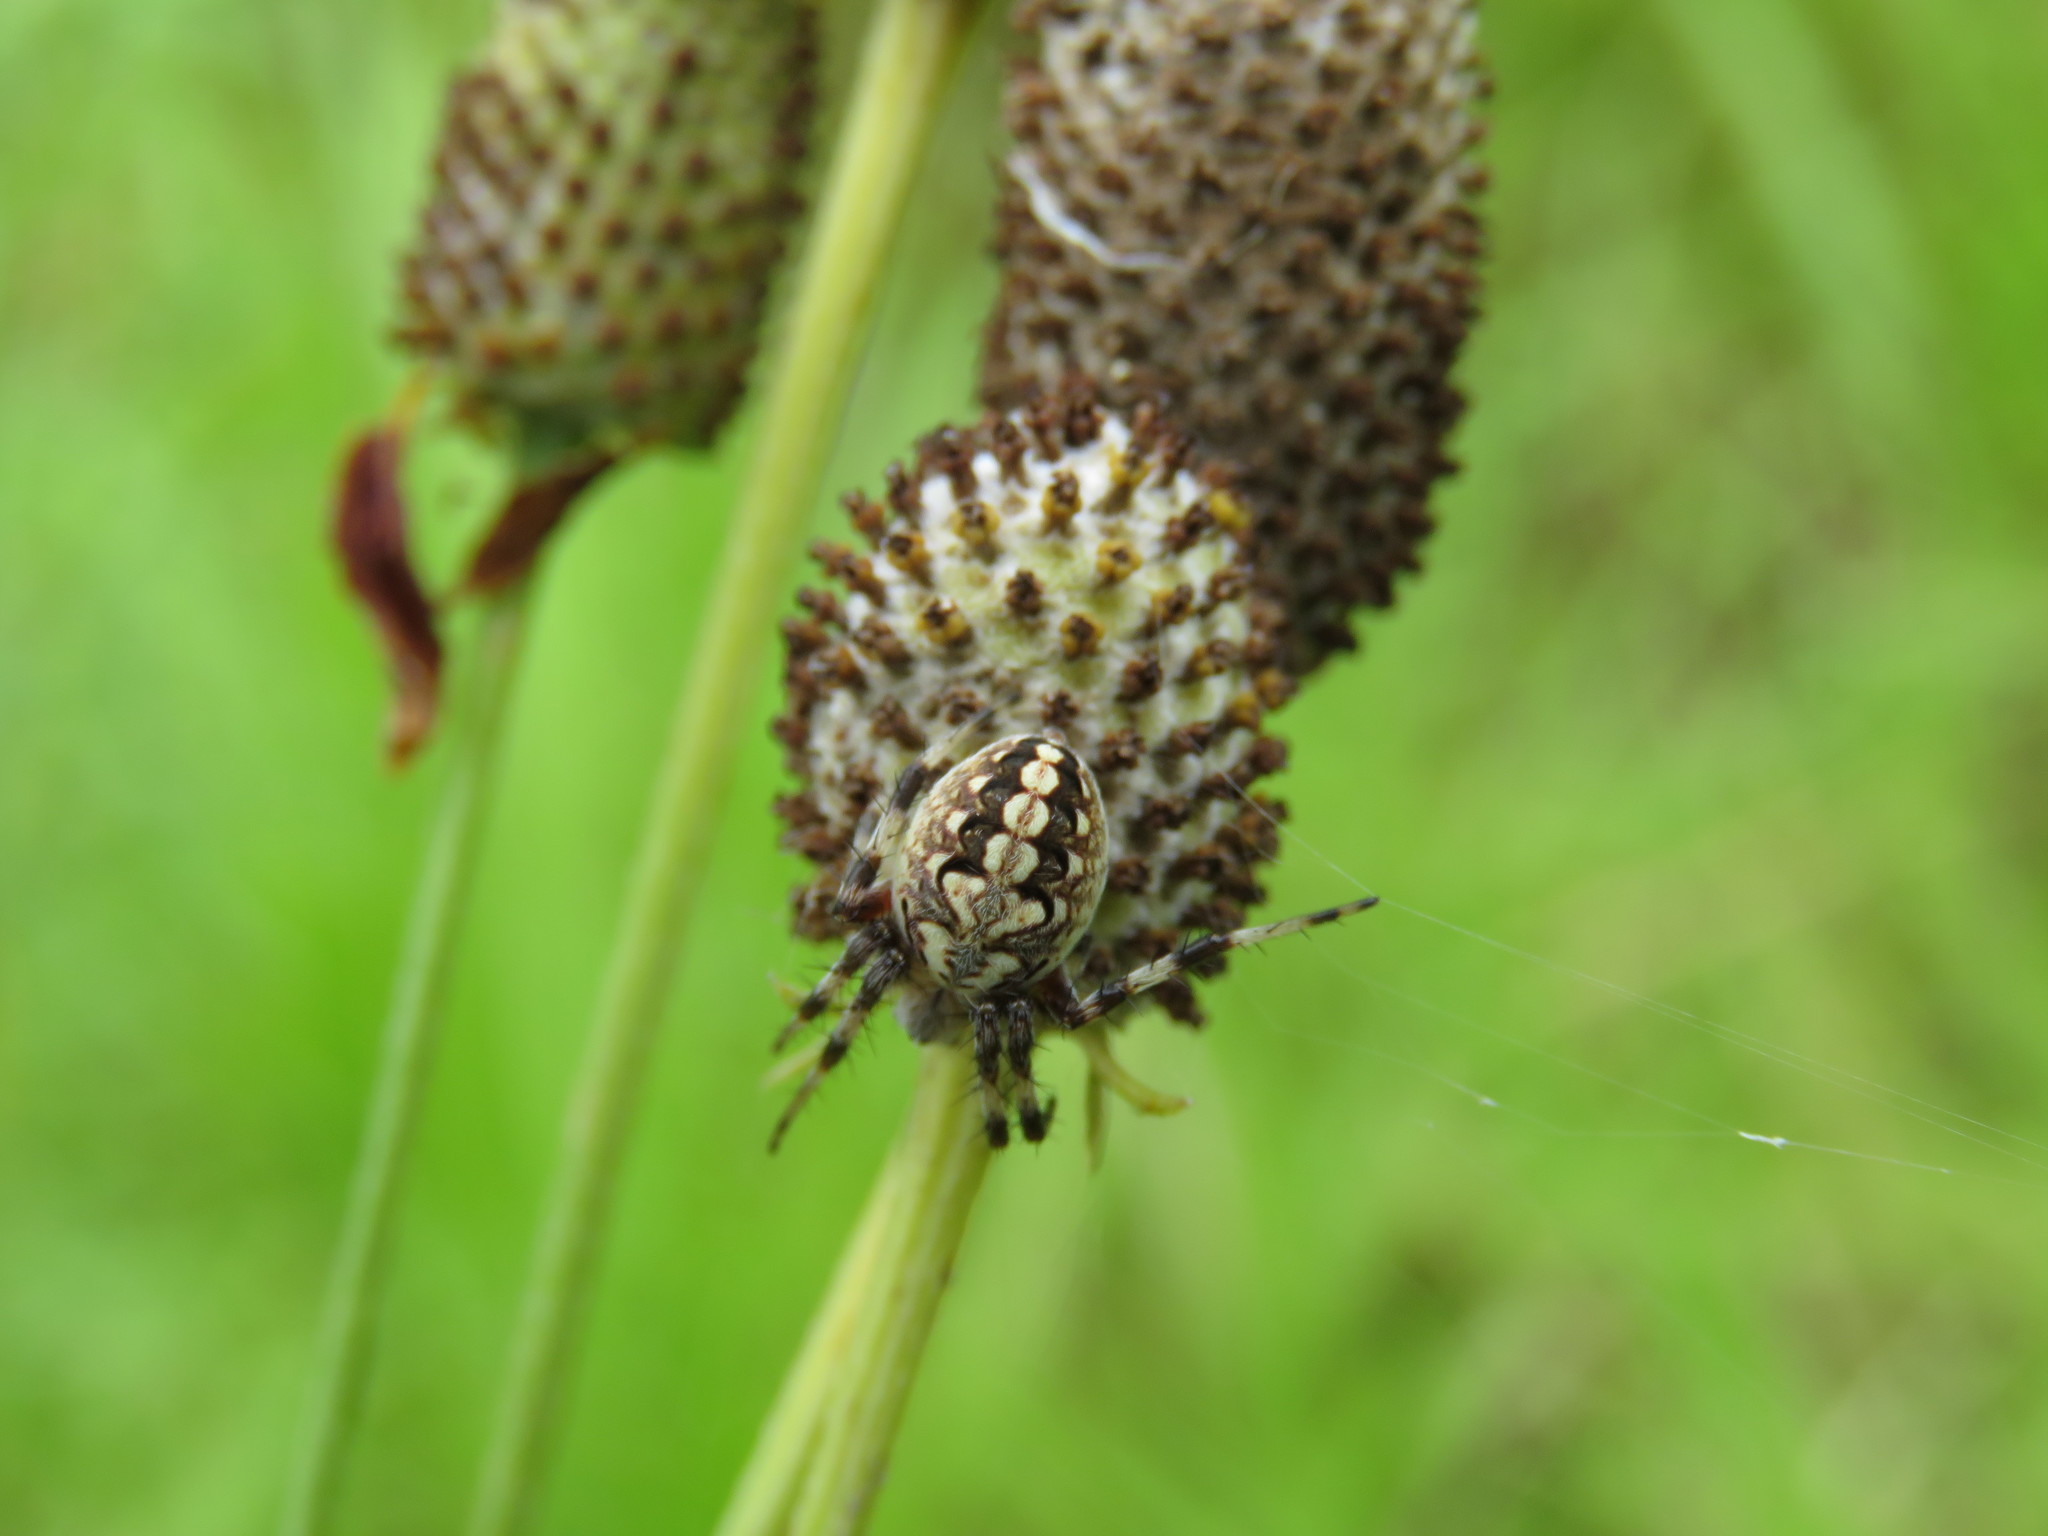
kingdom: Animalia
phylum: Arthropoda
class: Arachnida
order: Araneae
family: Araneidae
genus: Neoscona
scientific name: Neoscona oaxacensis
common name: Orb weavers
